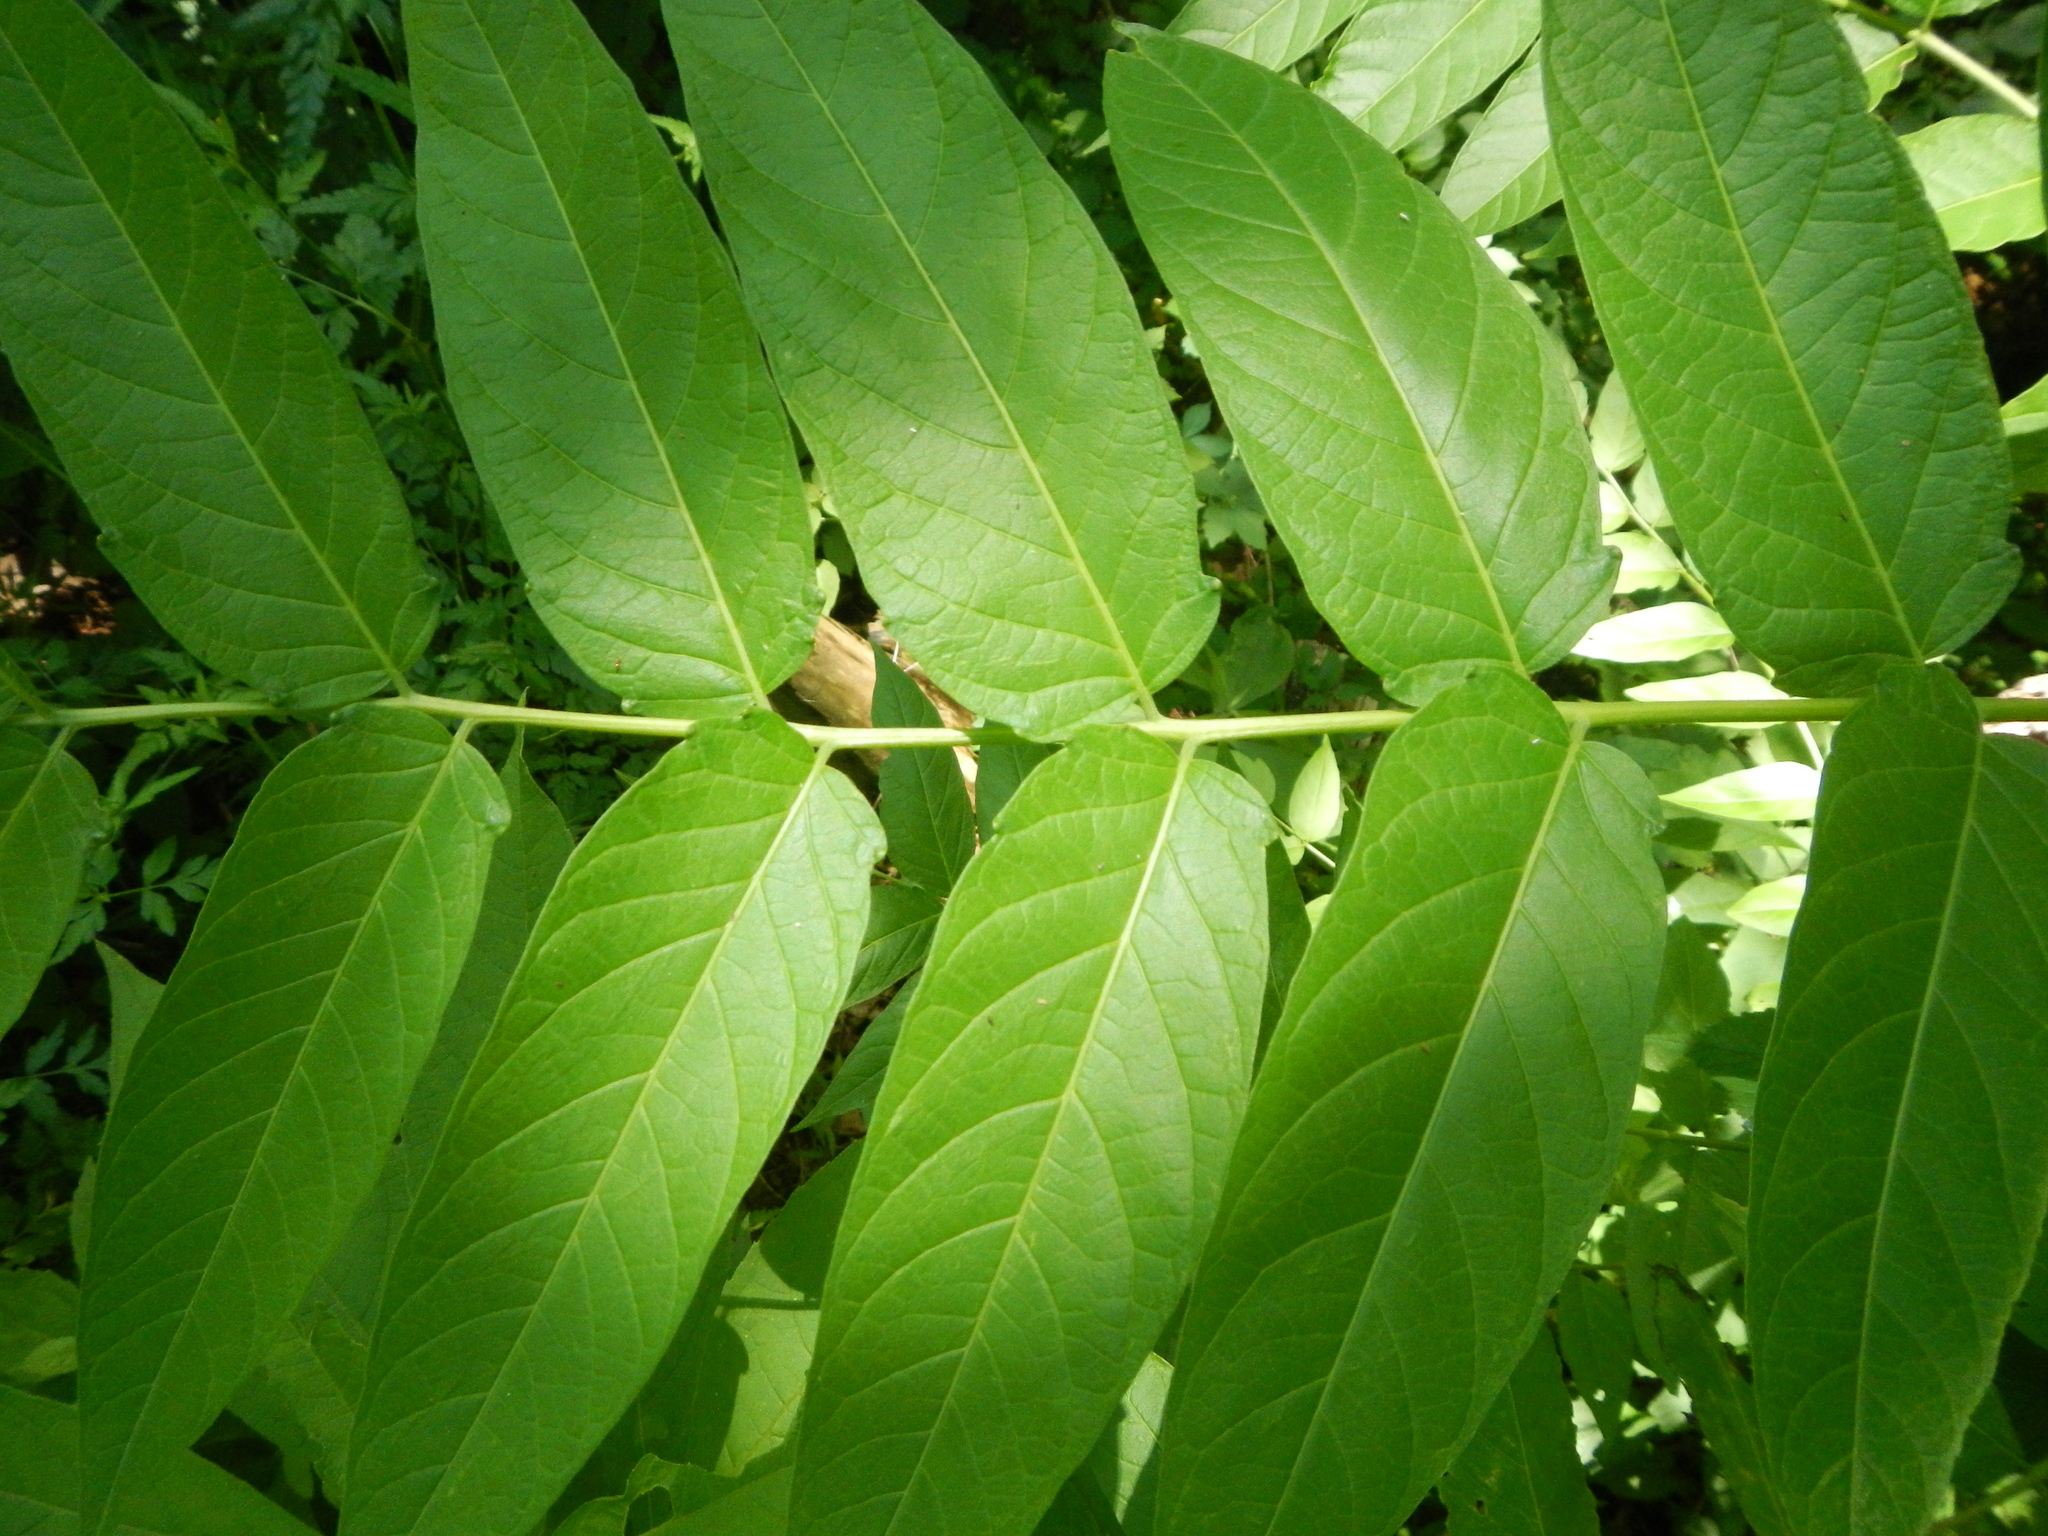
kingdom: Plantae
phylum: Tracheophyta
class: Magnoliopsida
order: Sapindales
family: Simaroubaceae
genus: Ailanthus
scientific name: Ailanthus altissima
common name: Tree-of-heaven
